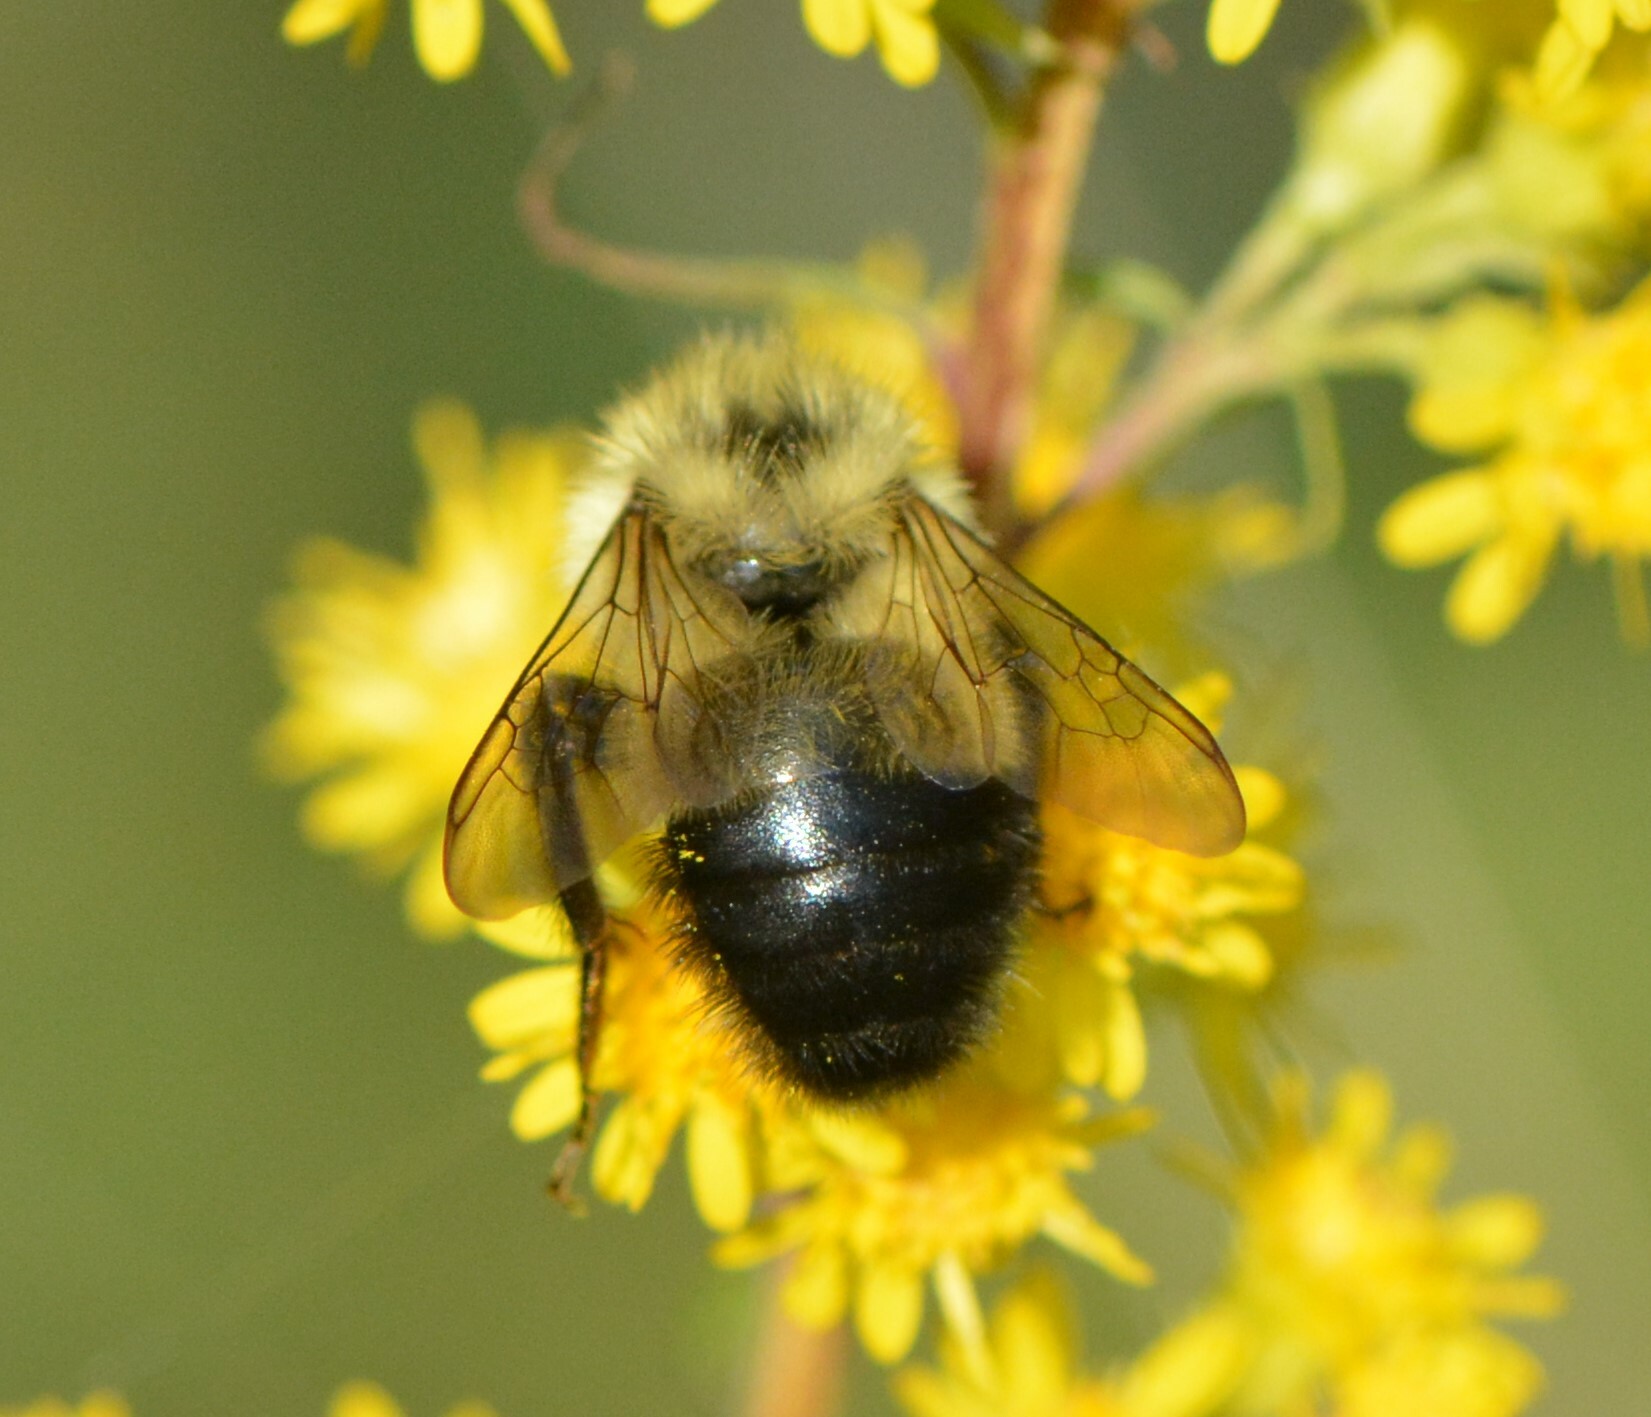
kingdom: Animalia
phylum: Arthropoda
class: Insecta
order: Hymenoptera
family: Apidae
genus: Bombus
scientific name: Bombus vagans
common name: Half-black bumble bee
